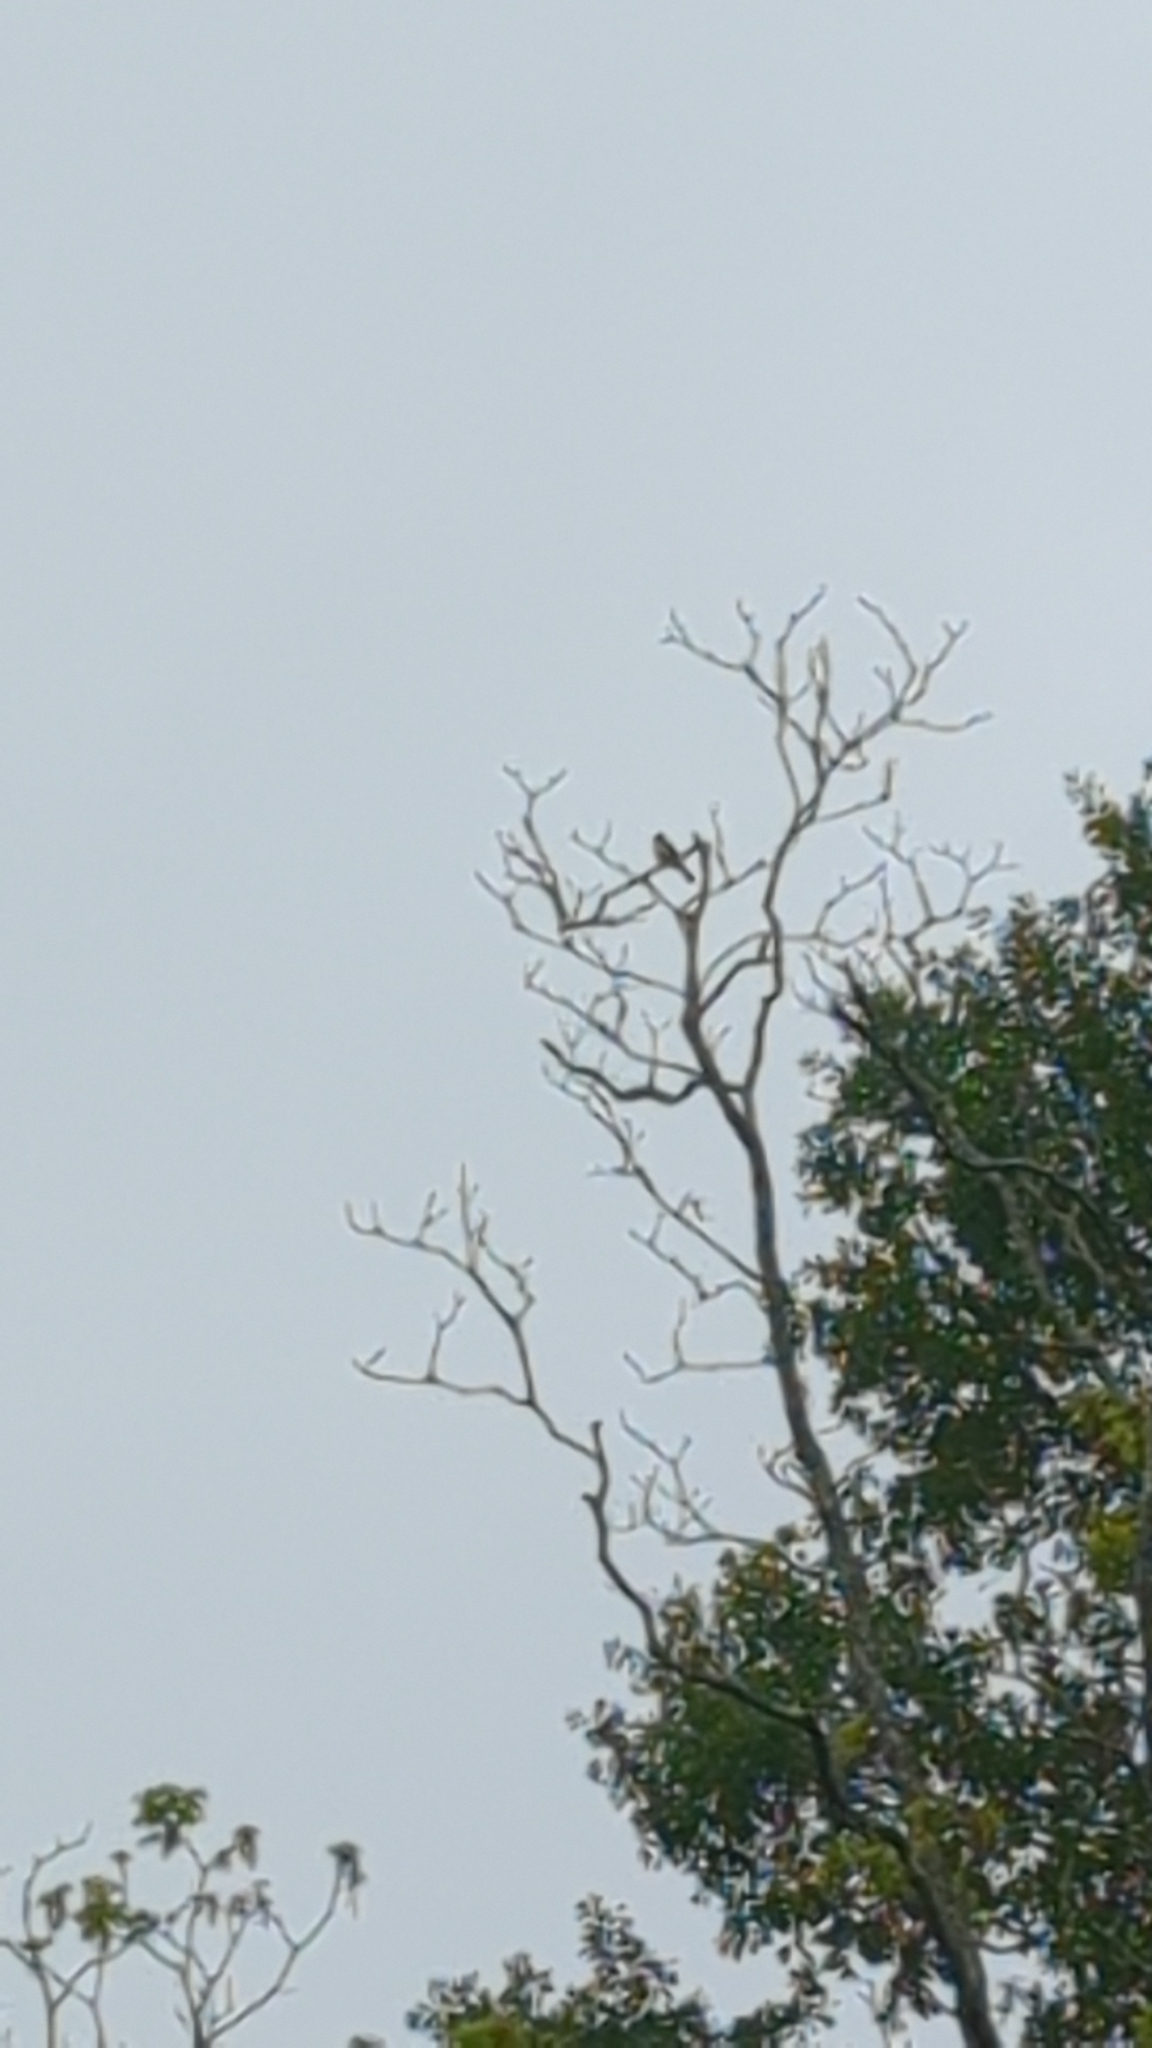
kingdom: Animalia
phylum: Chordata
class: Aves
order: Passeriformes
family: Tyrannidae
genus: Myiarchus
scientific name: Myiarchus crinitus
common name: Great crested flycatcher
